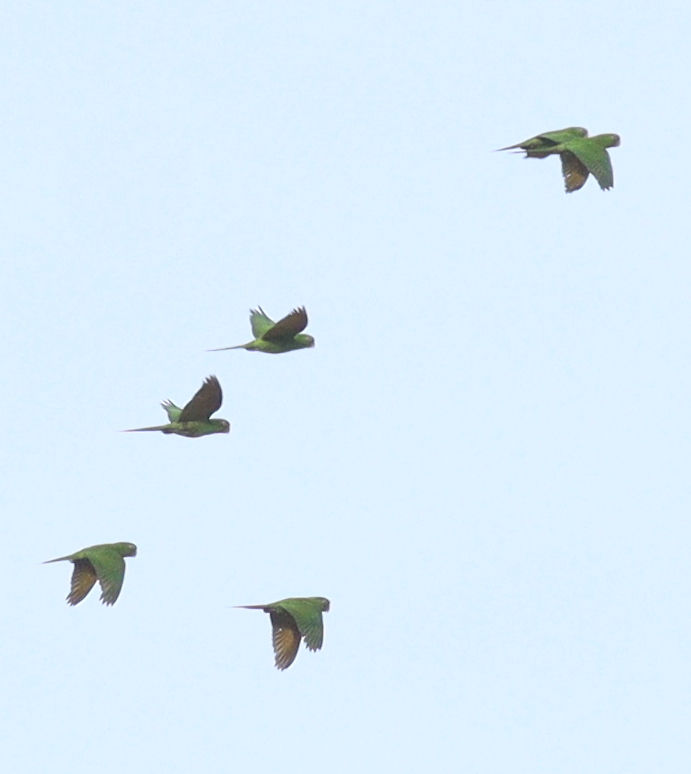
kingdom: Animalia
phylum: Chordata
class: Aves
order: Psittaciformes
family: Psittacidae
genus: Aratinga
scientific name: Aratinga finschi
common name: Crimson-fronted parakeet
